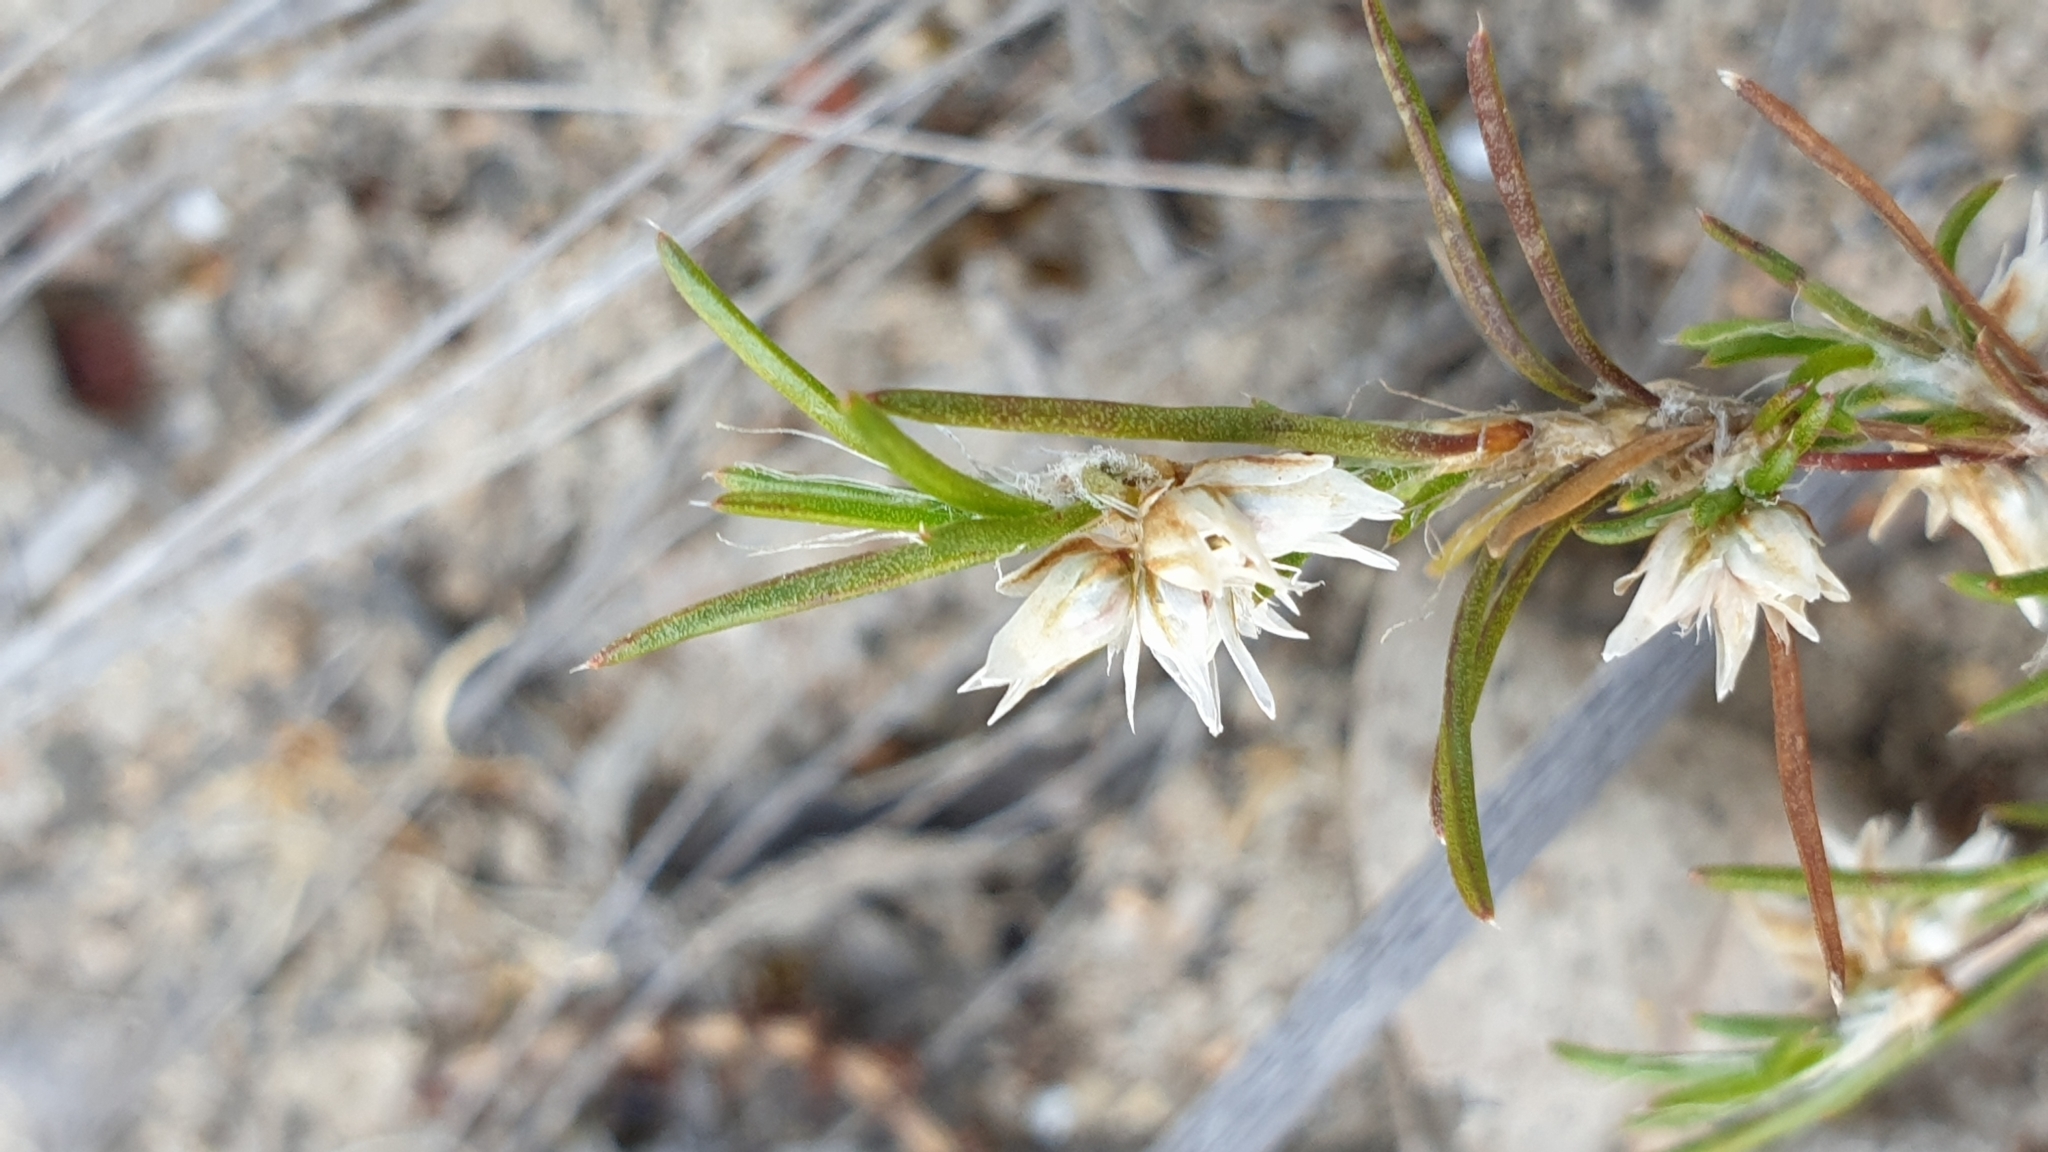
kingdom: Plantae
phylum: Tracheophyta
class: Liliopsida
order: Asparagales
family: Asparagaceae
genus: Laxmannia
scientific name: Laxmannia orientalis
